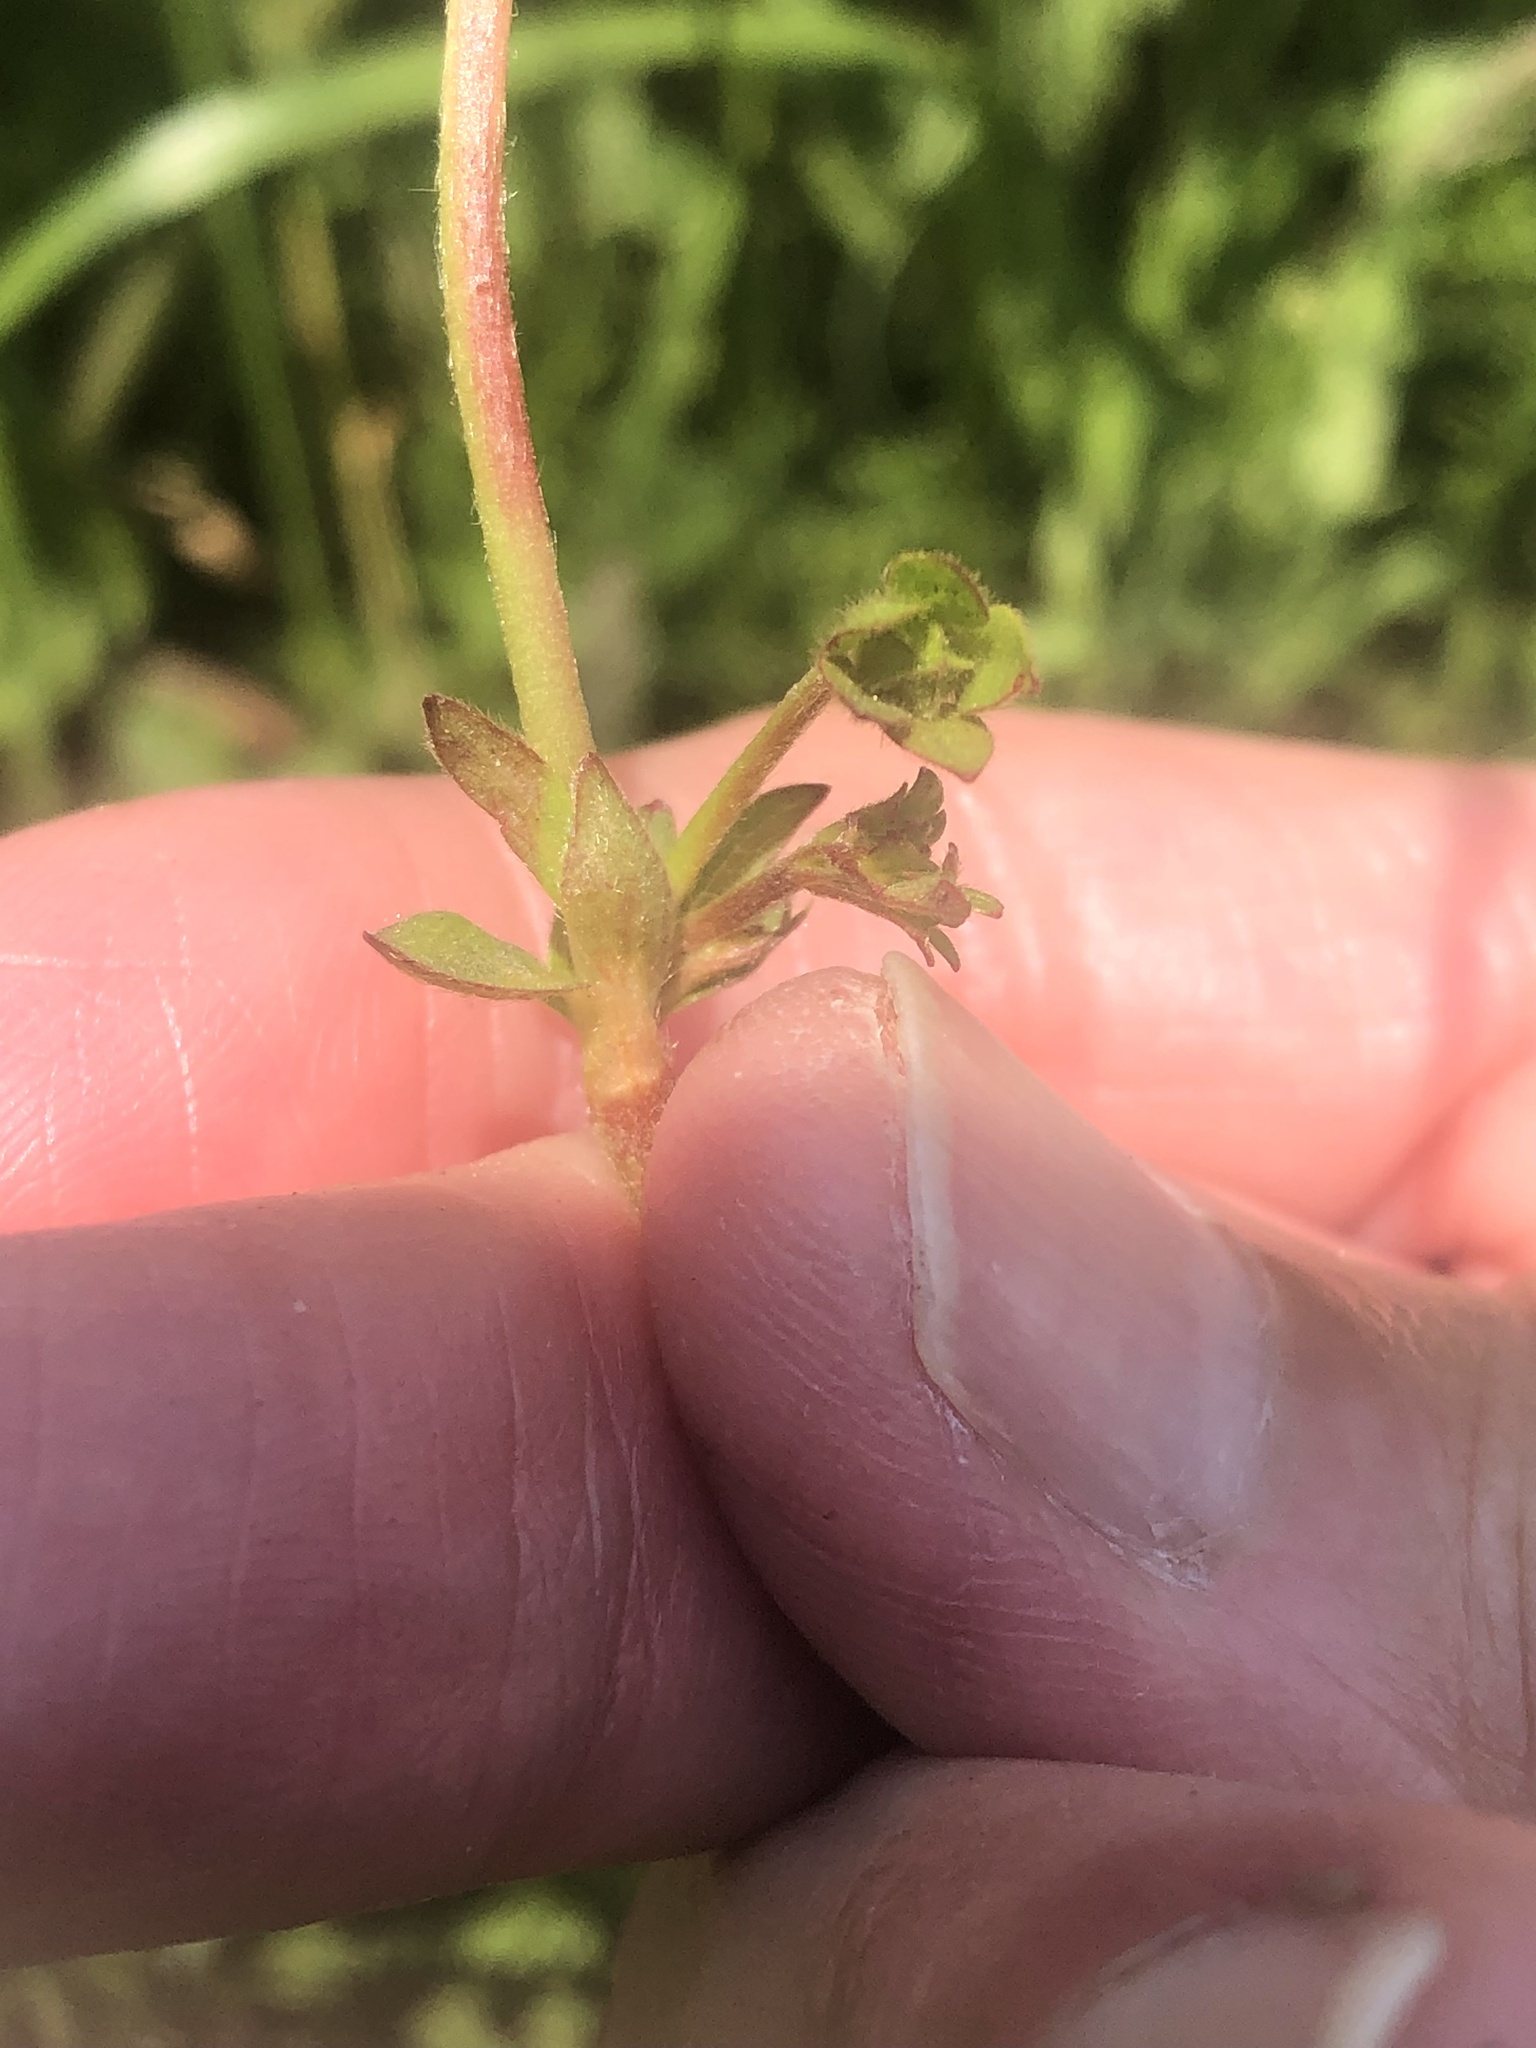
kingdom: Plantae
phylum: Tracheophyta
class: Magnoliopsida
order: Rosales
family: Rosaceae
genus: Potentilla
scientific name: Potentilla reptans
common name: Creeping cinquefoil
